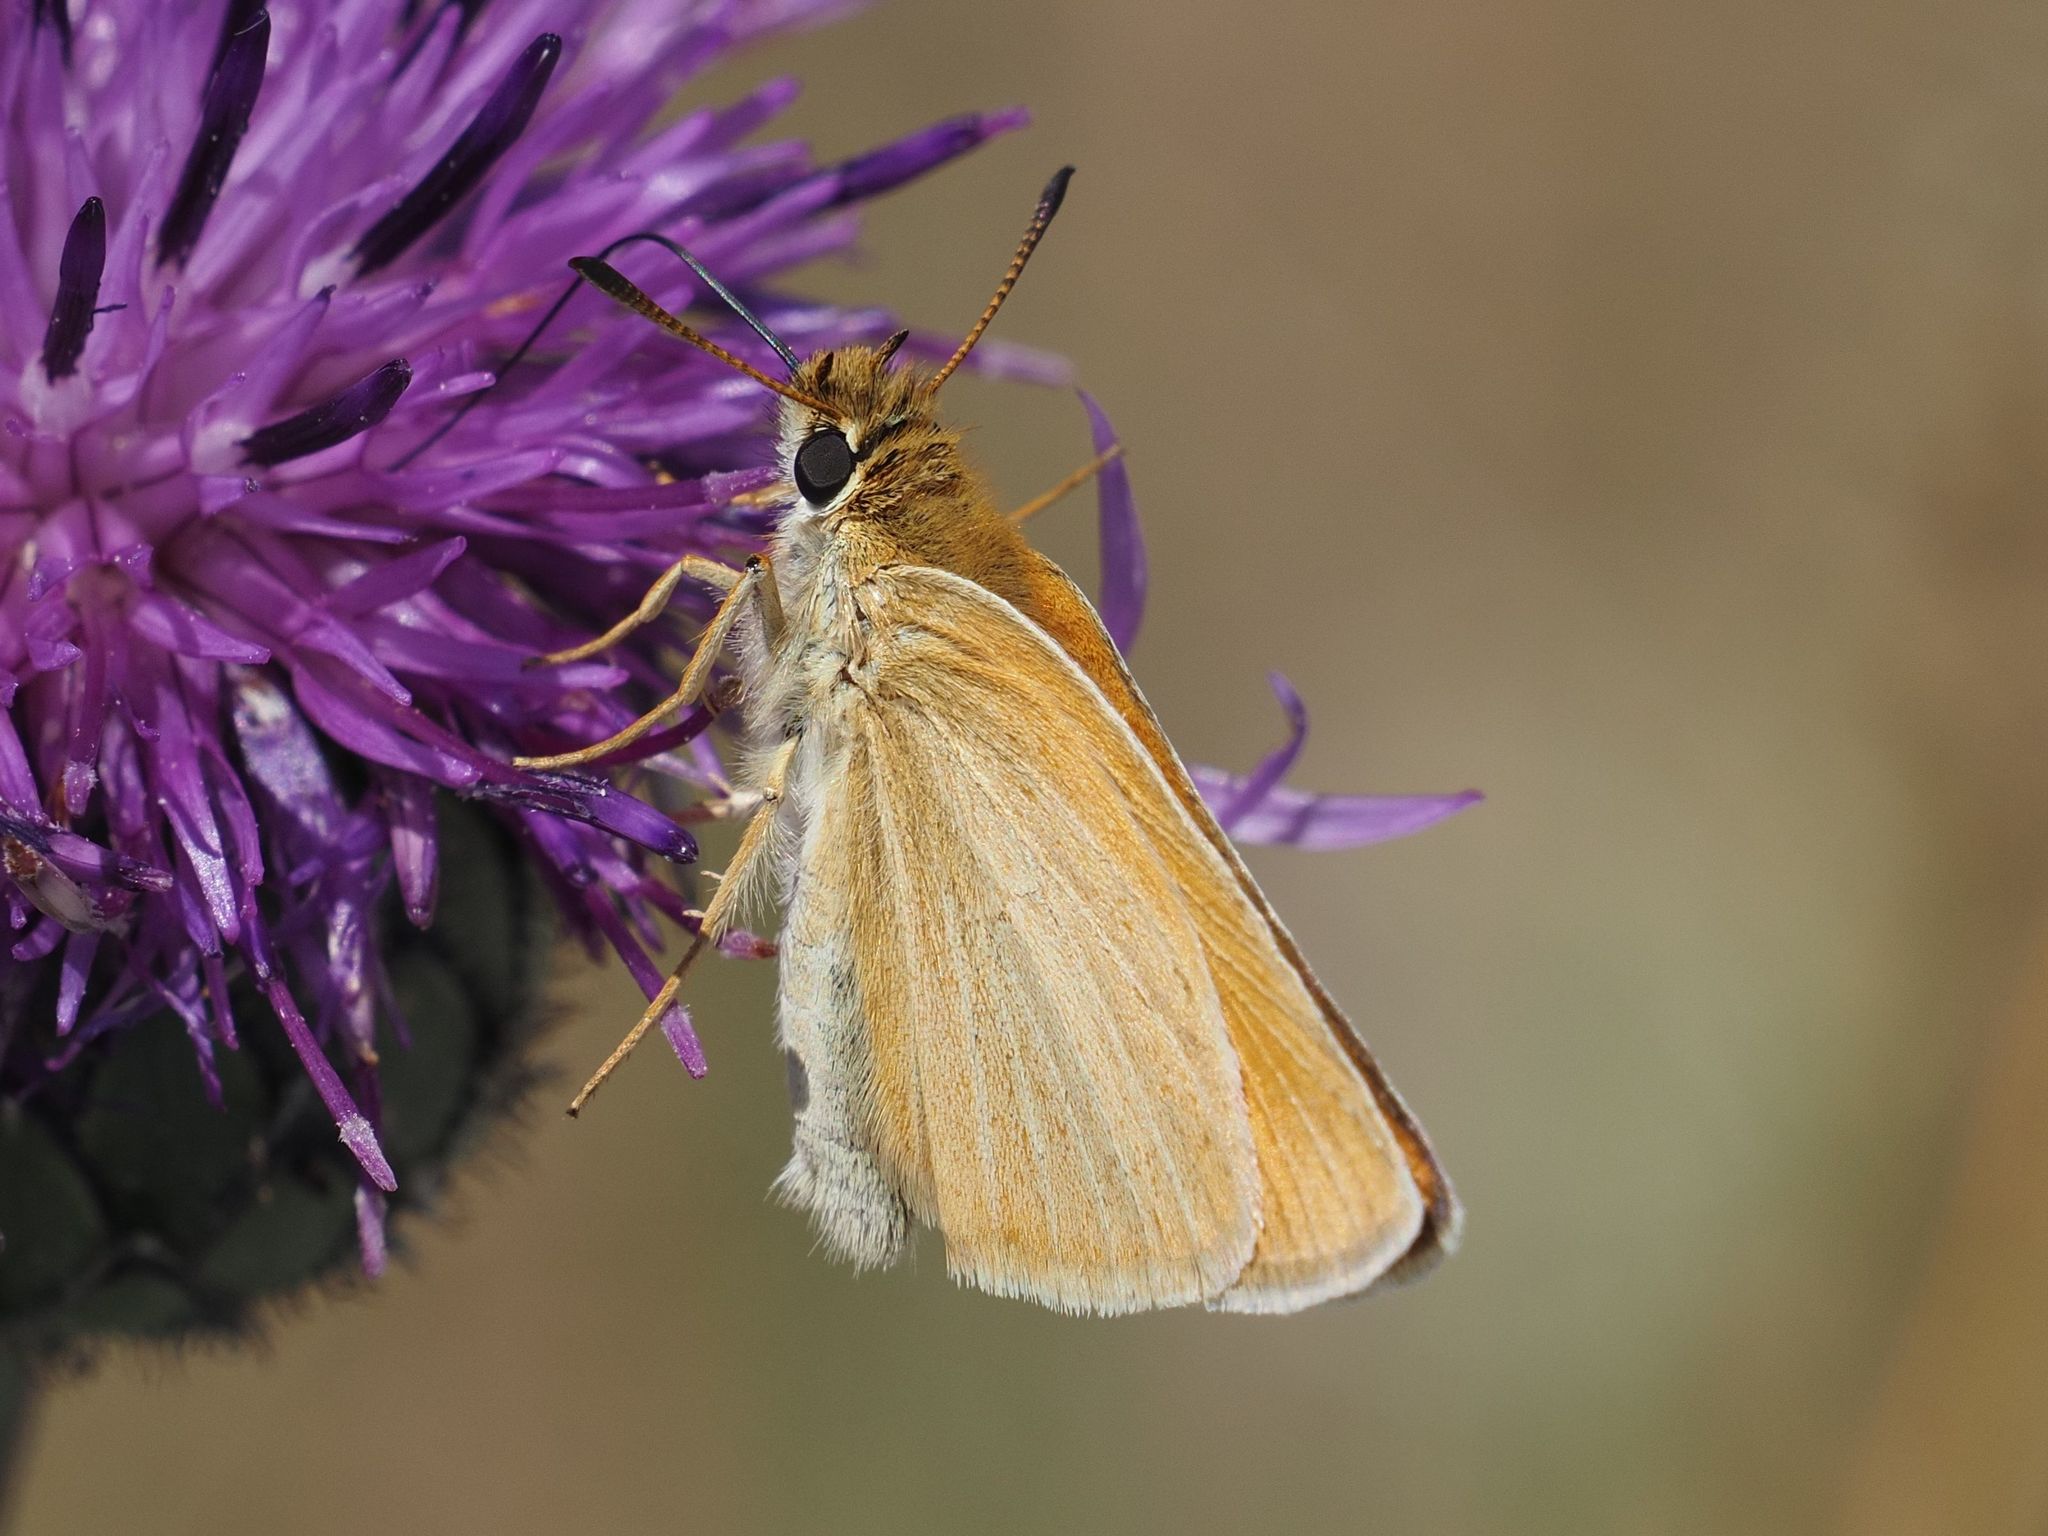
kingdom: Animalia
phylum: Arthropoda
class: Insecta
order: Lepidoptera
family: Hesperiidae
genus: Thymelicus
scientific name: Thymelicus lineola
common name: Essex skipper
